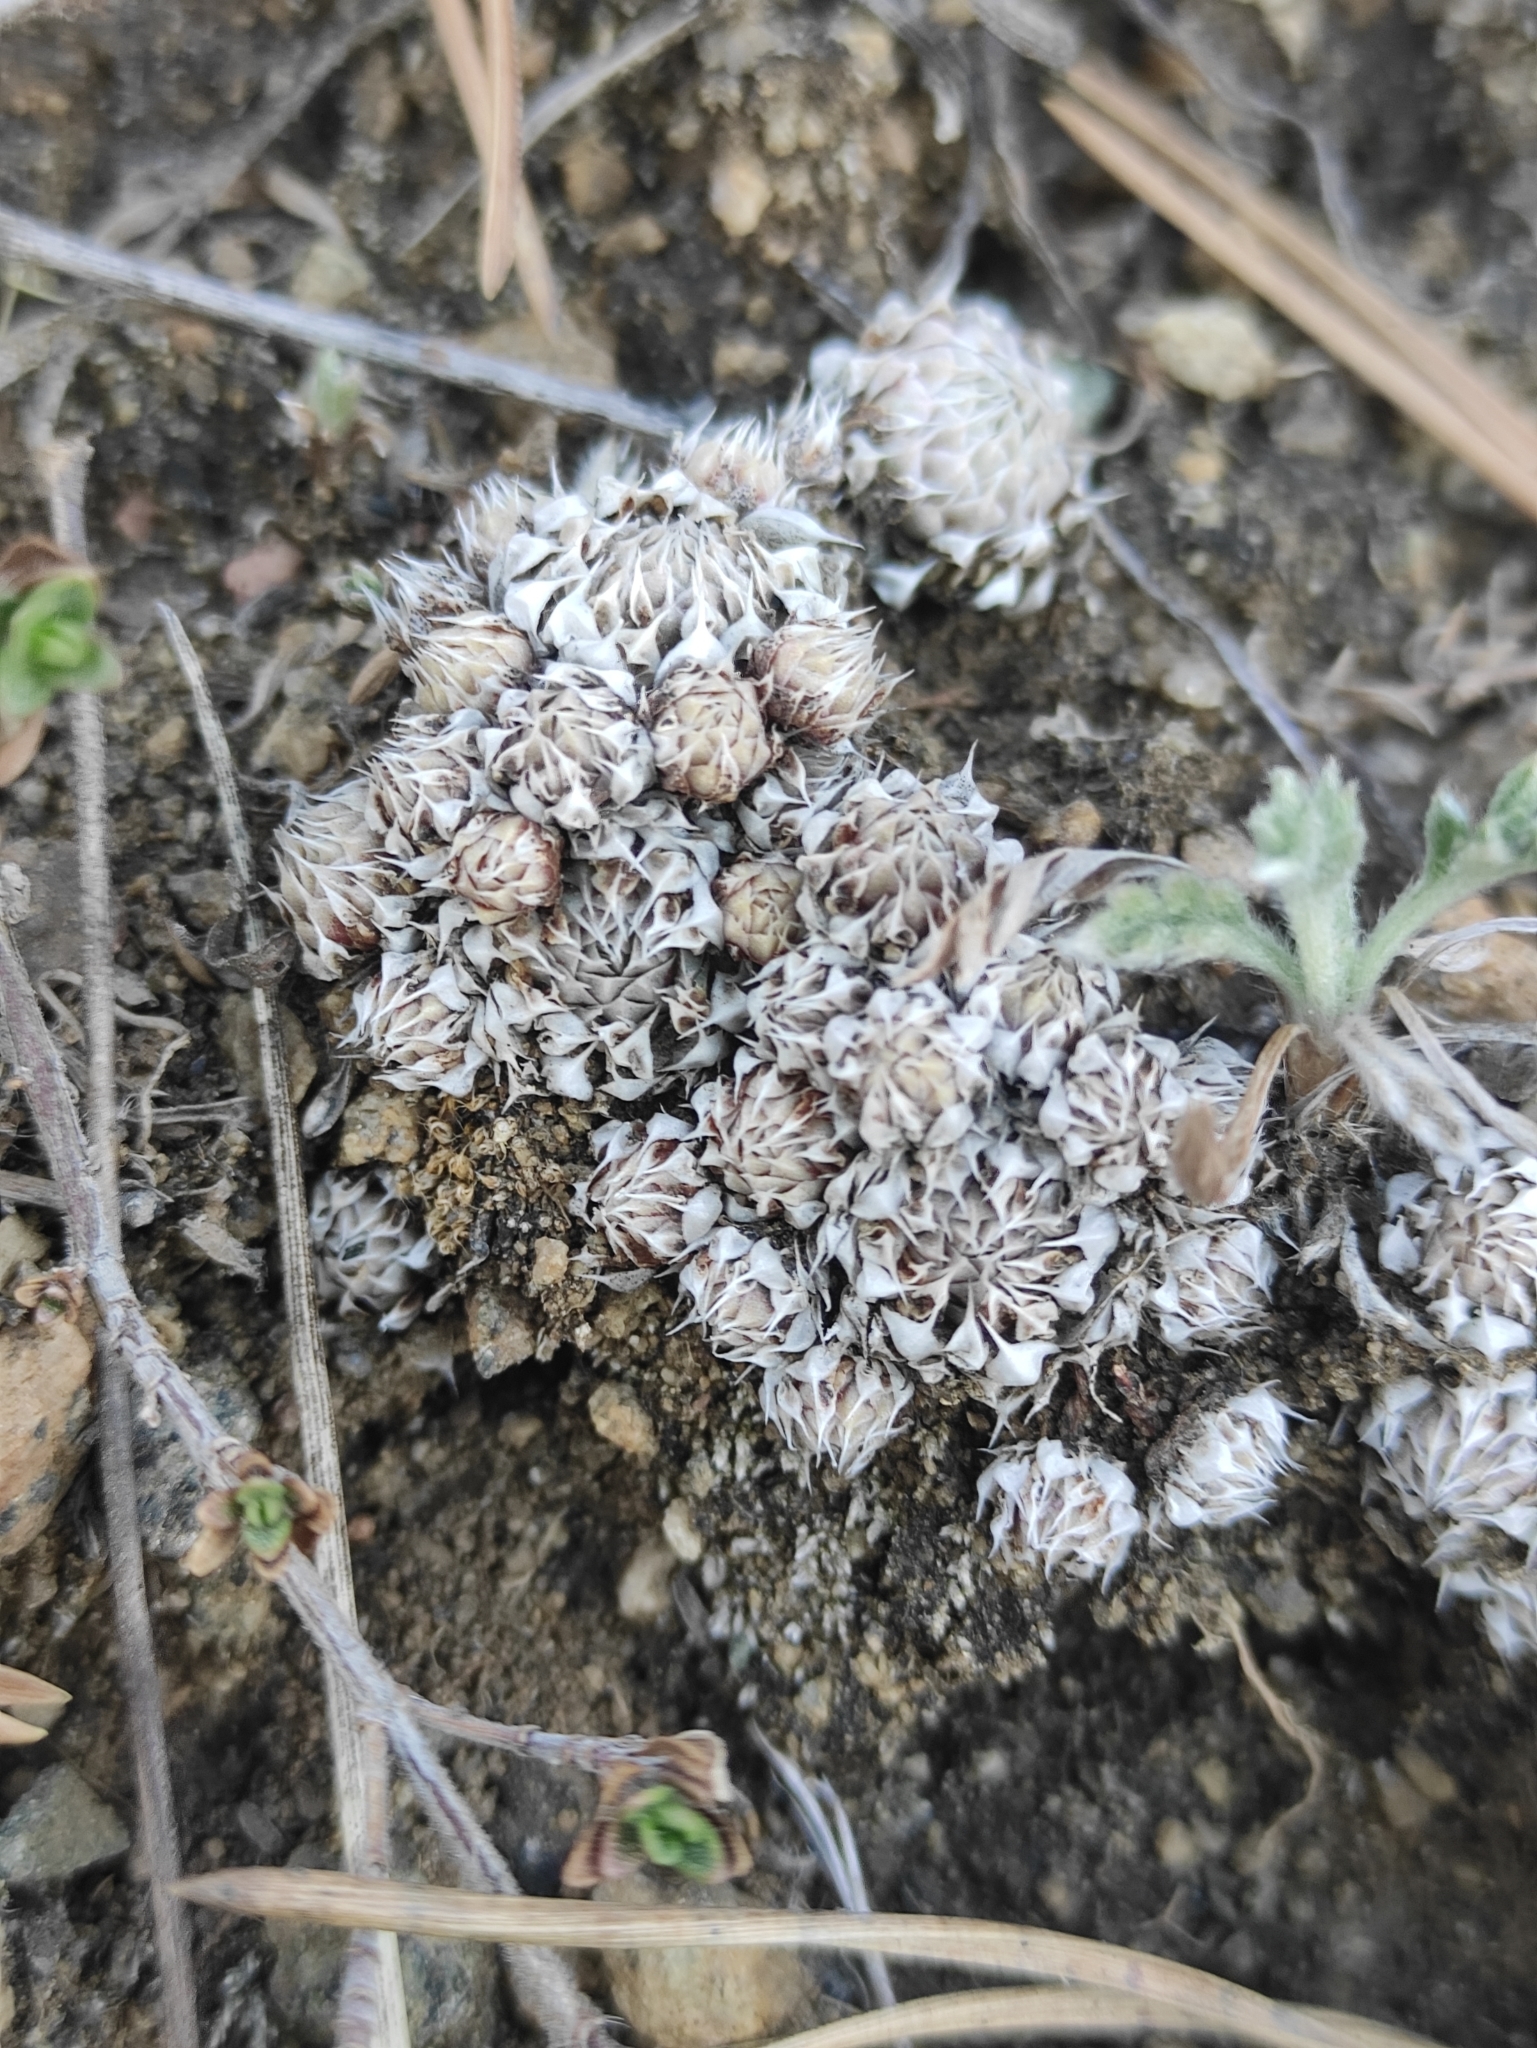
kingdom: Plantae
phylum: Tracheophyta
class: Magnoliopsida
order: Saxifragales
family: Crassulaceae
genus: Orostachys
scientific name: Orostachys spinosa
